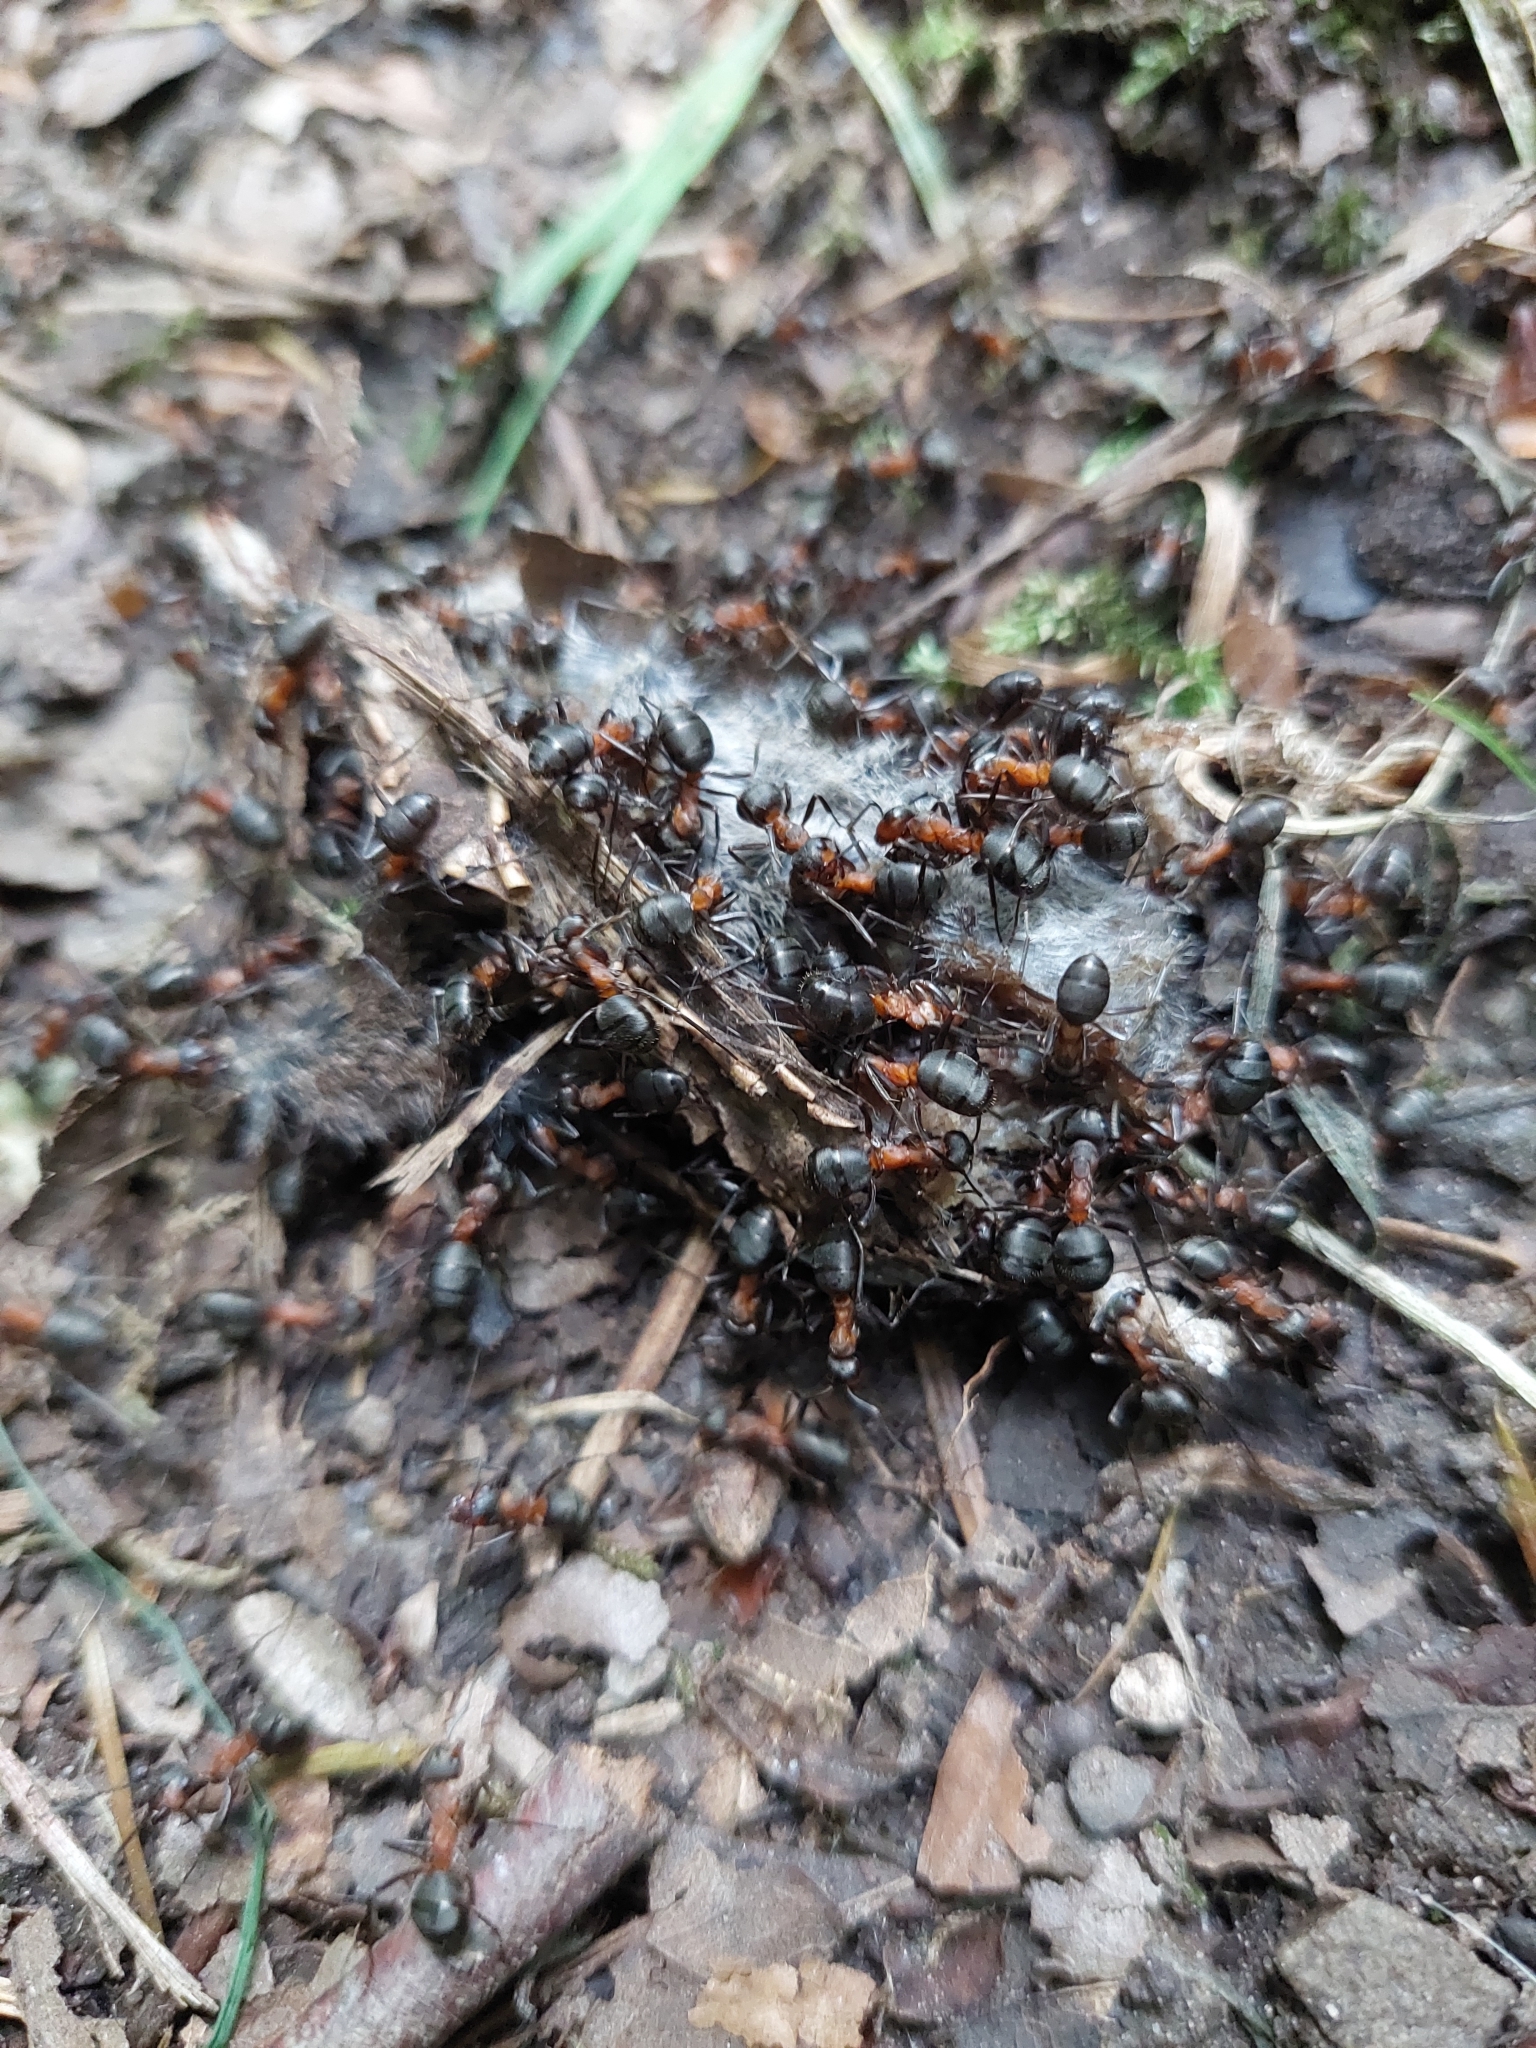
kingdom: Animalia
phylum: Arthropoda
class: Insecta
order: Hymenoptera
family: Formicidae
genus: Formica
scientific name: Formica
